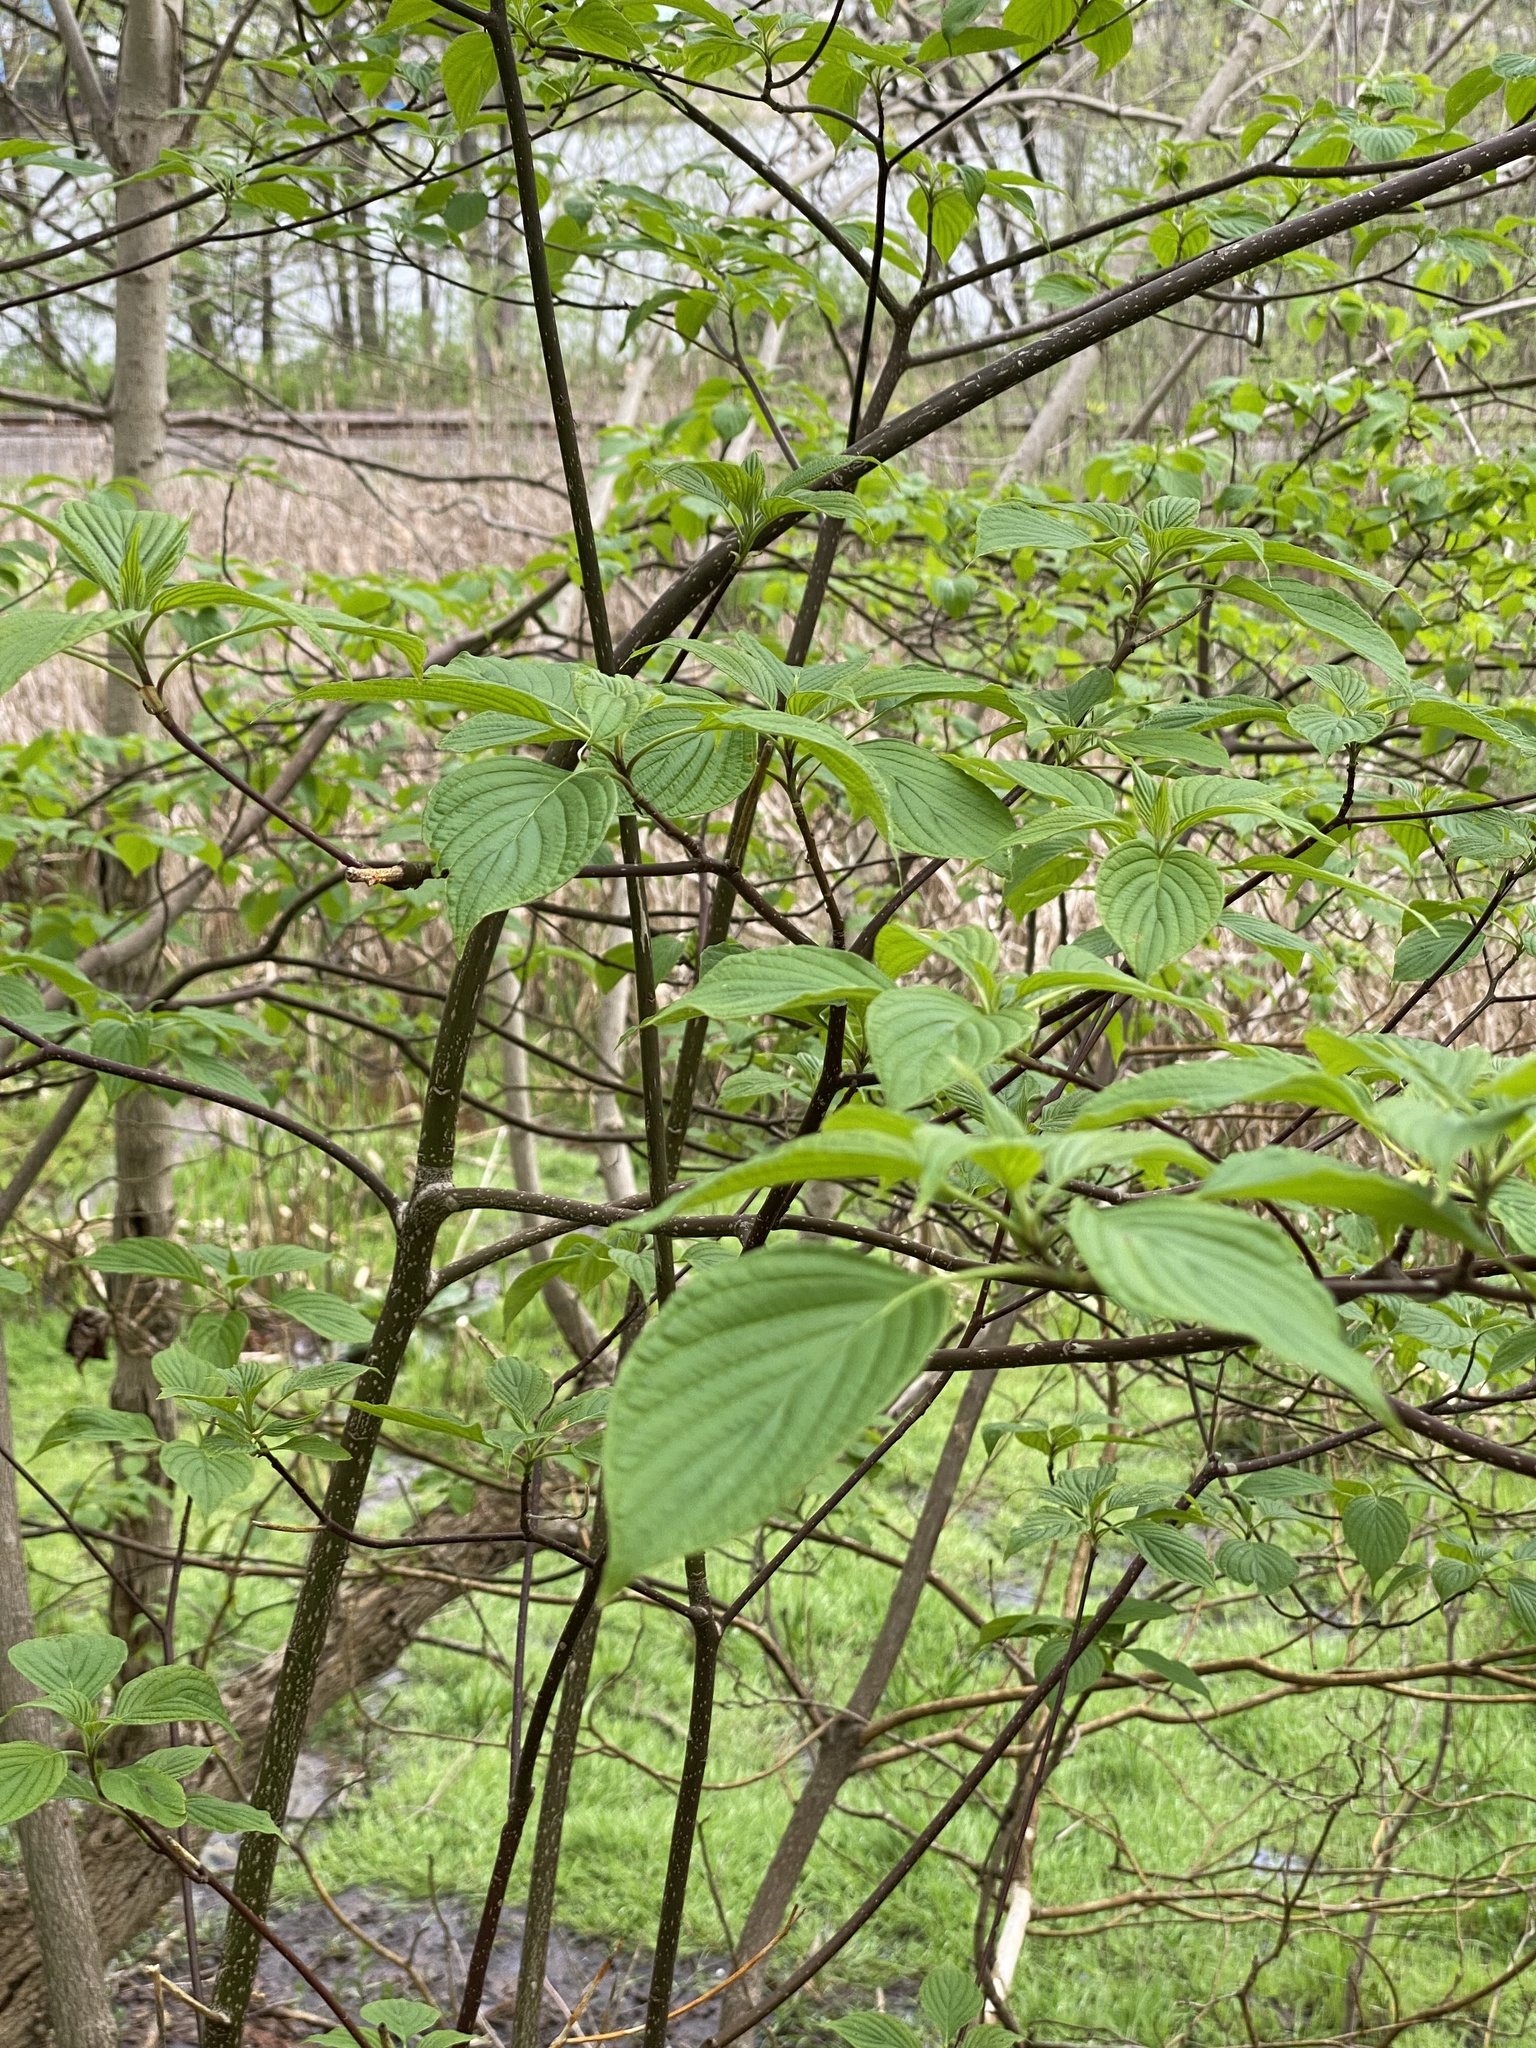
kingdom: Plantae
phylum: Tracheophyta
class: Magnoliopsida
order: Cornales
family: Cornaceae
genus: Cornus
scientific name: Cornus alternifolia
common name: Pagoda dogwood
